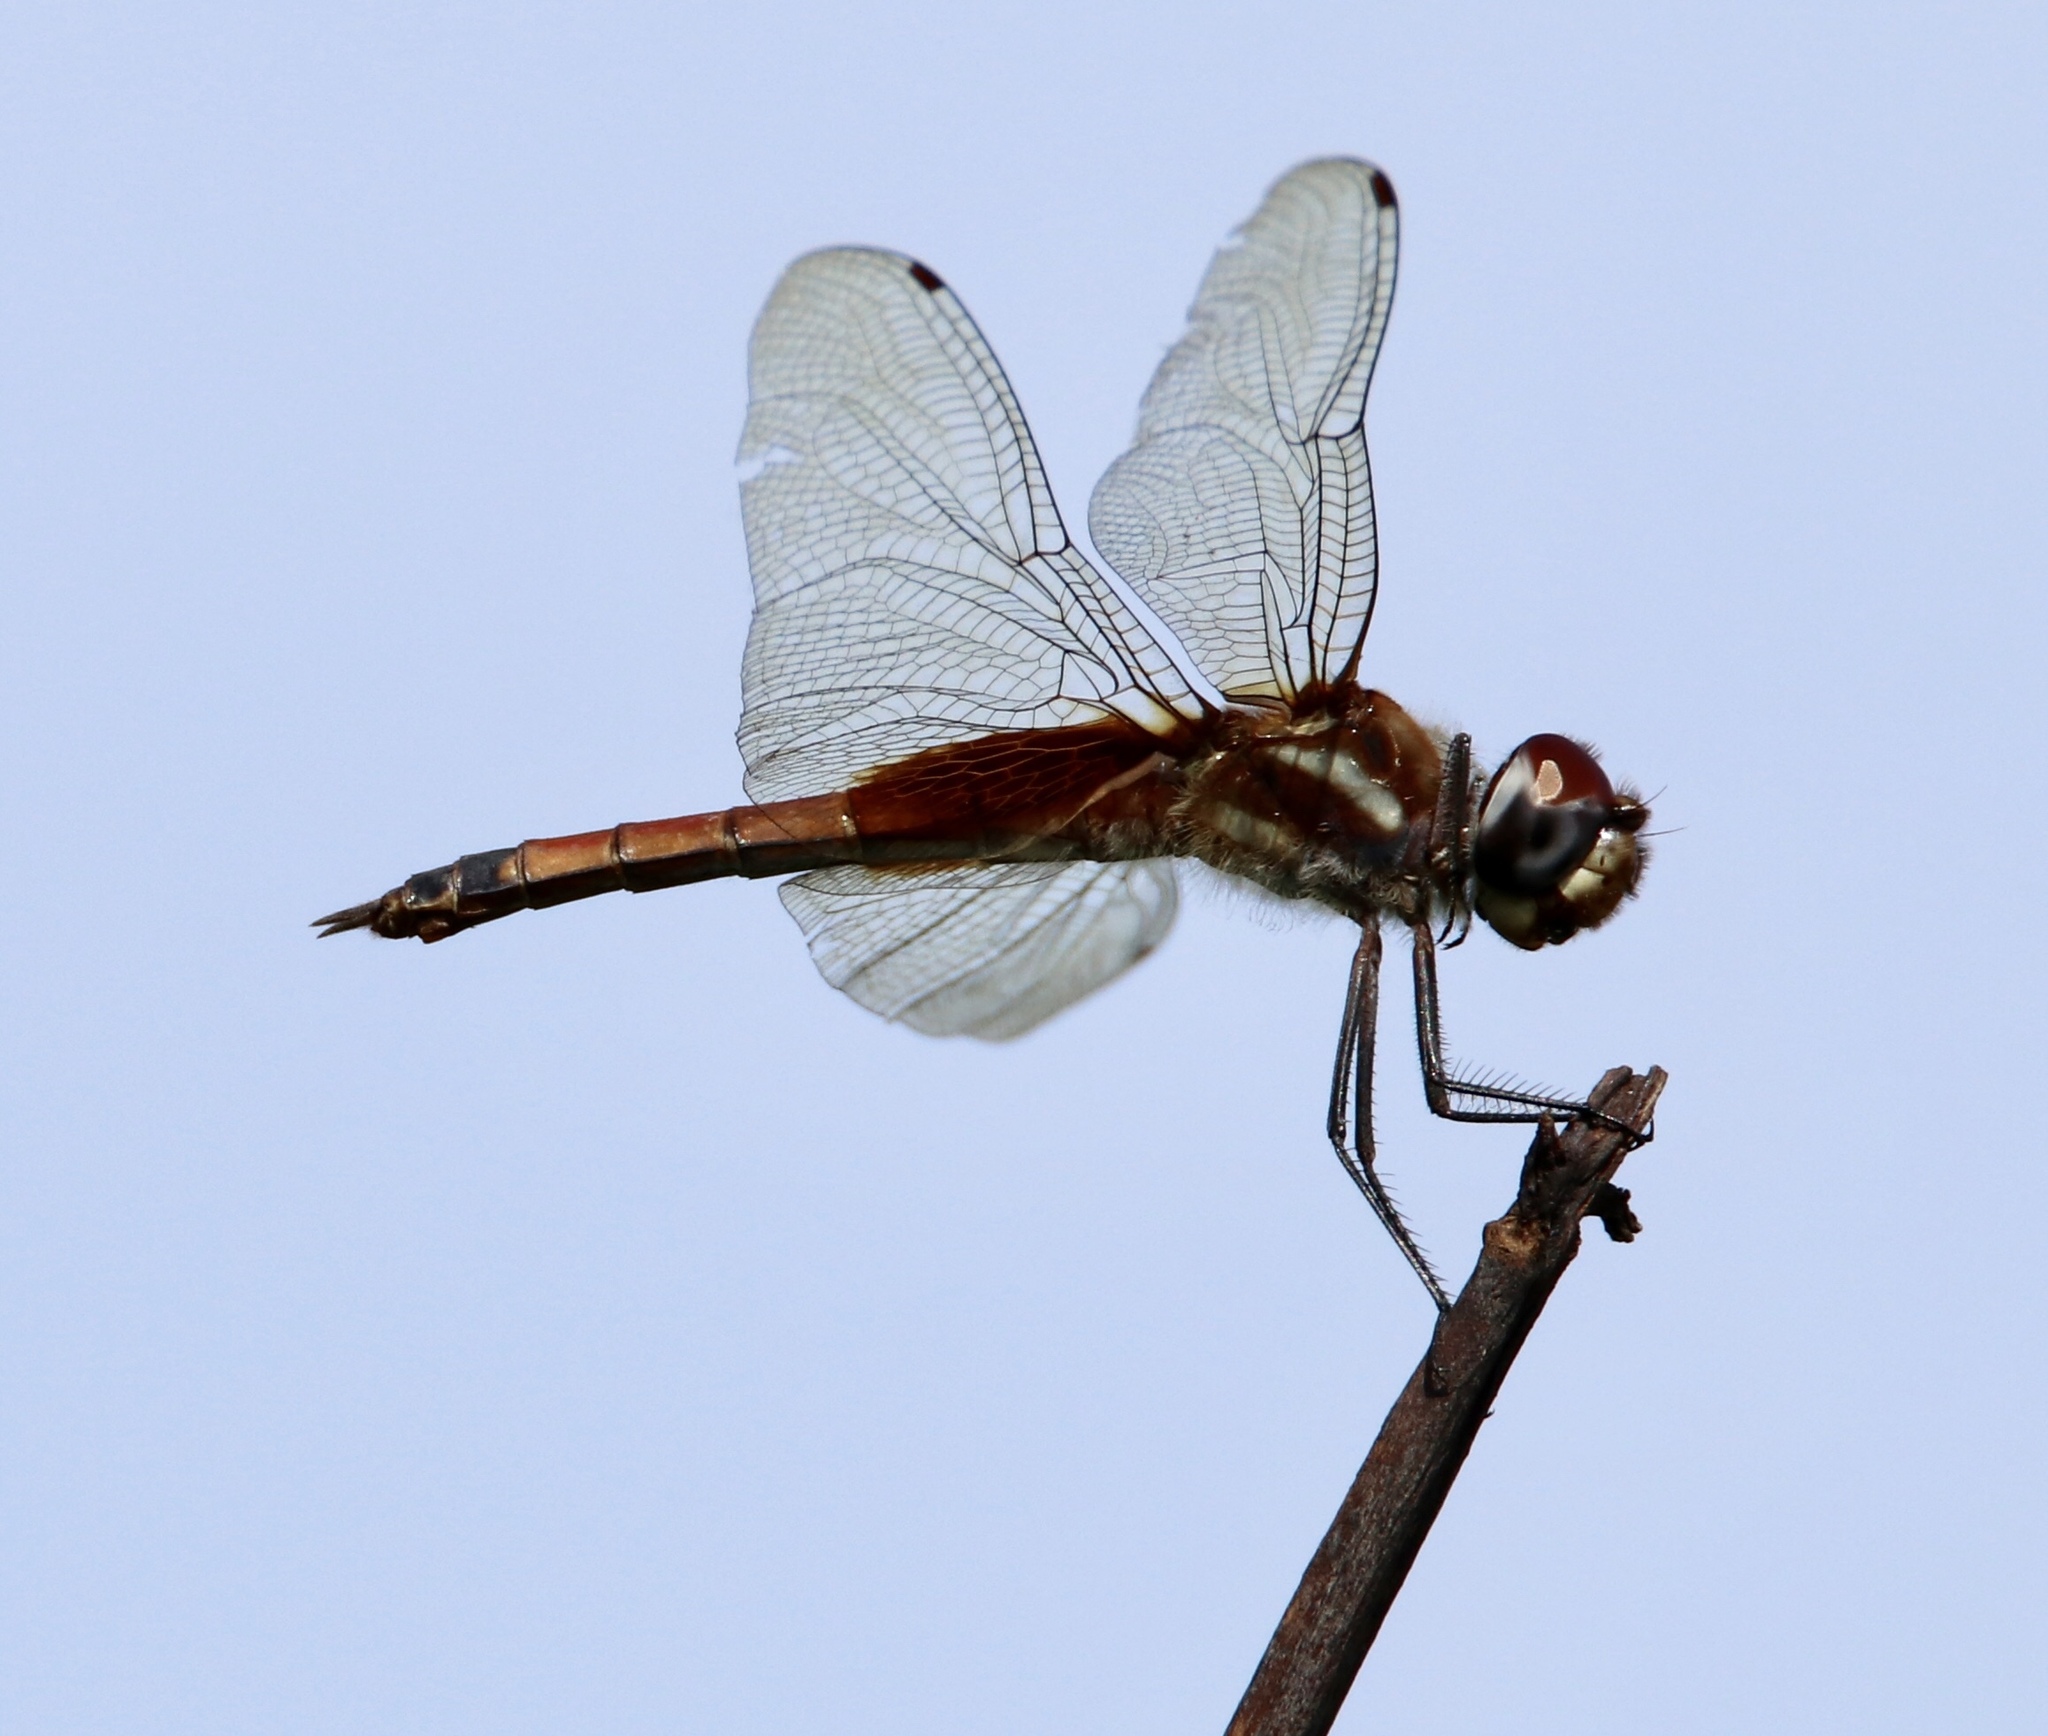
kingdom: Animalia
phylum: Arthropoda
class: Insecta
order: Odonata
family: Libellulidae
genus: Tramea
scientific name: Tramea darwini
